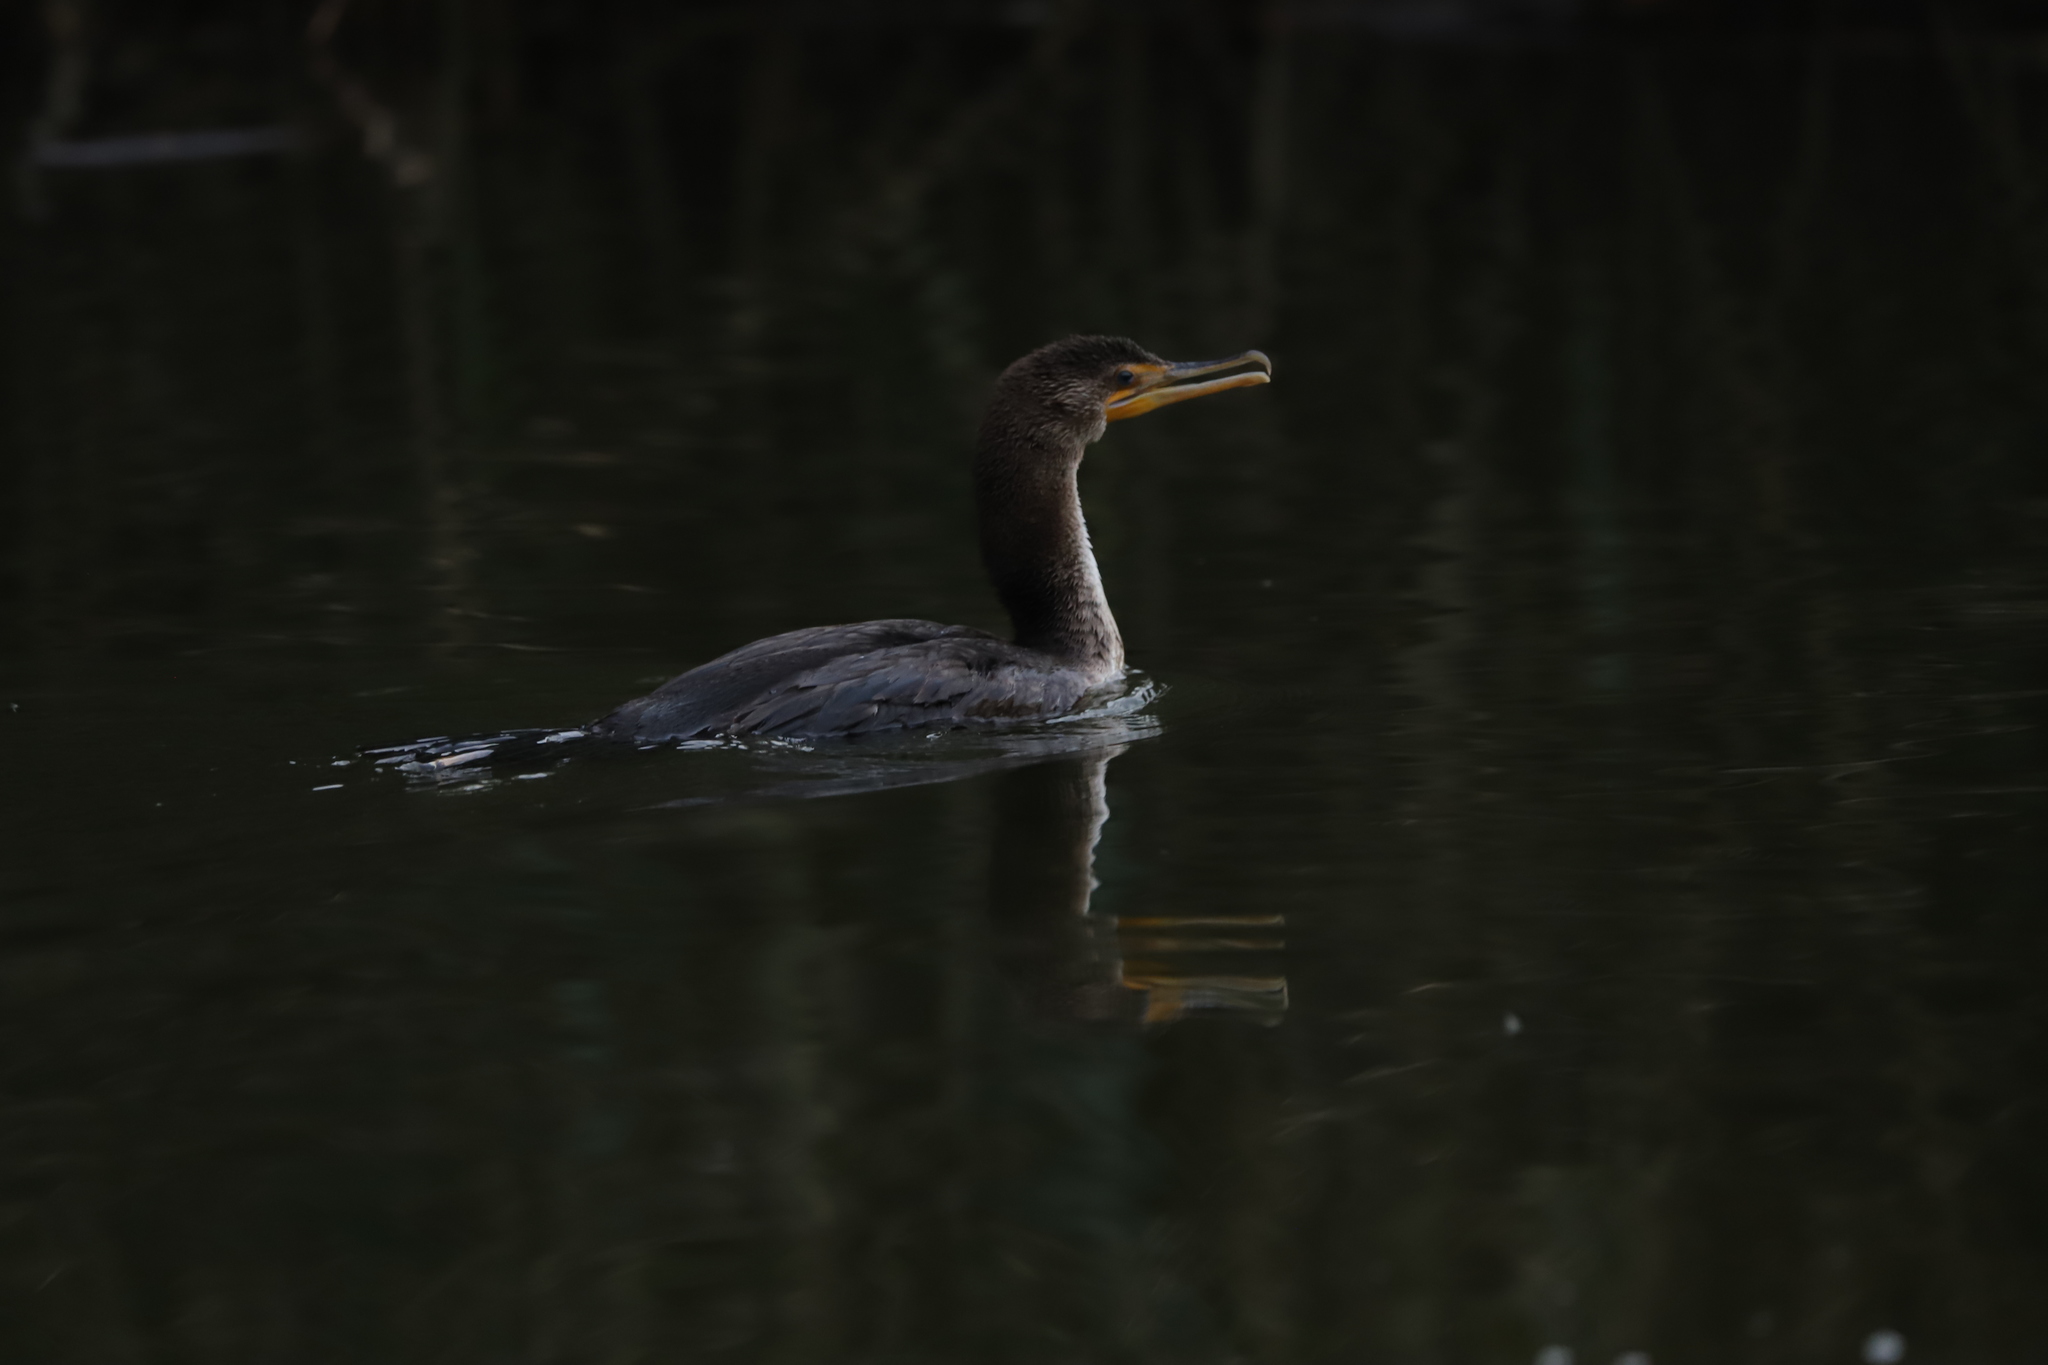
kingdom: Animalia
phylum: Chordata
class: Aves
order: Suliformes
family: Phalacrocoracidae
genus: Phalacrocorax
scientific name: Phalacrocorax auritus
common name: Double-crested cormorant
